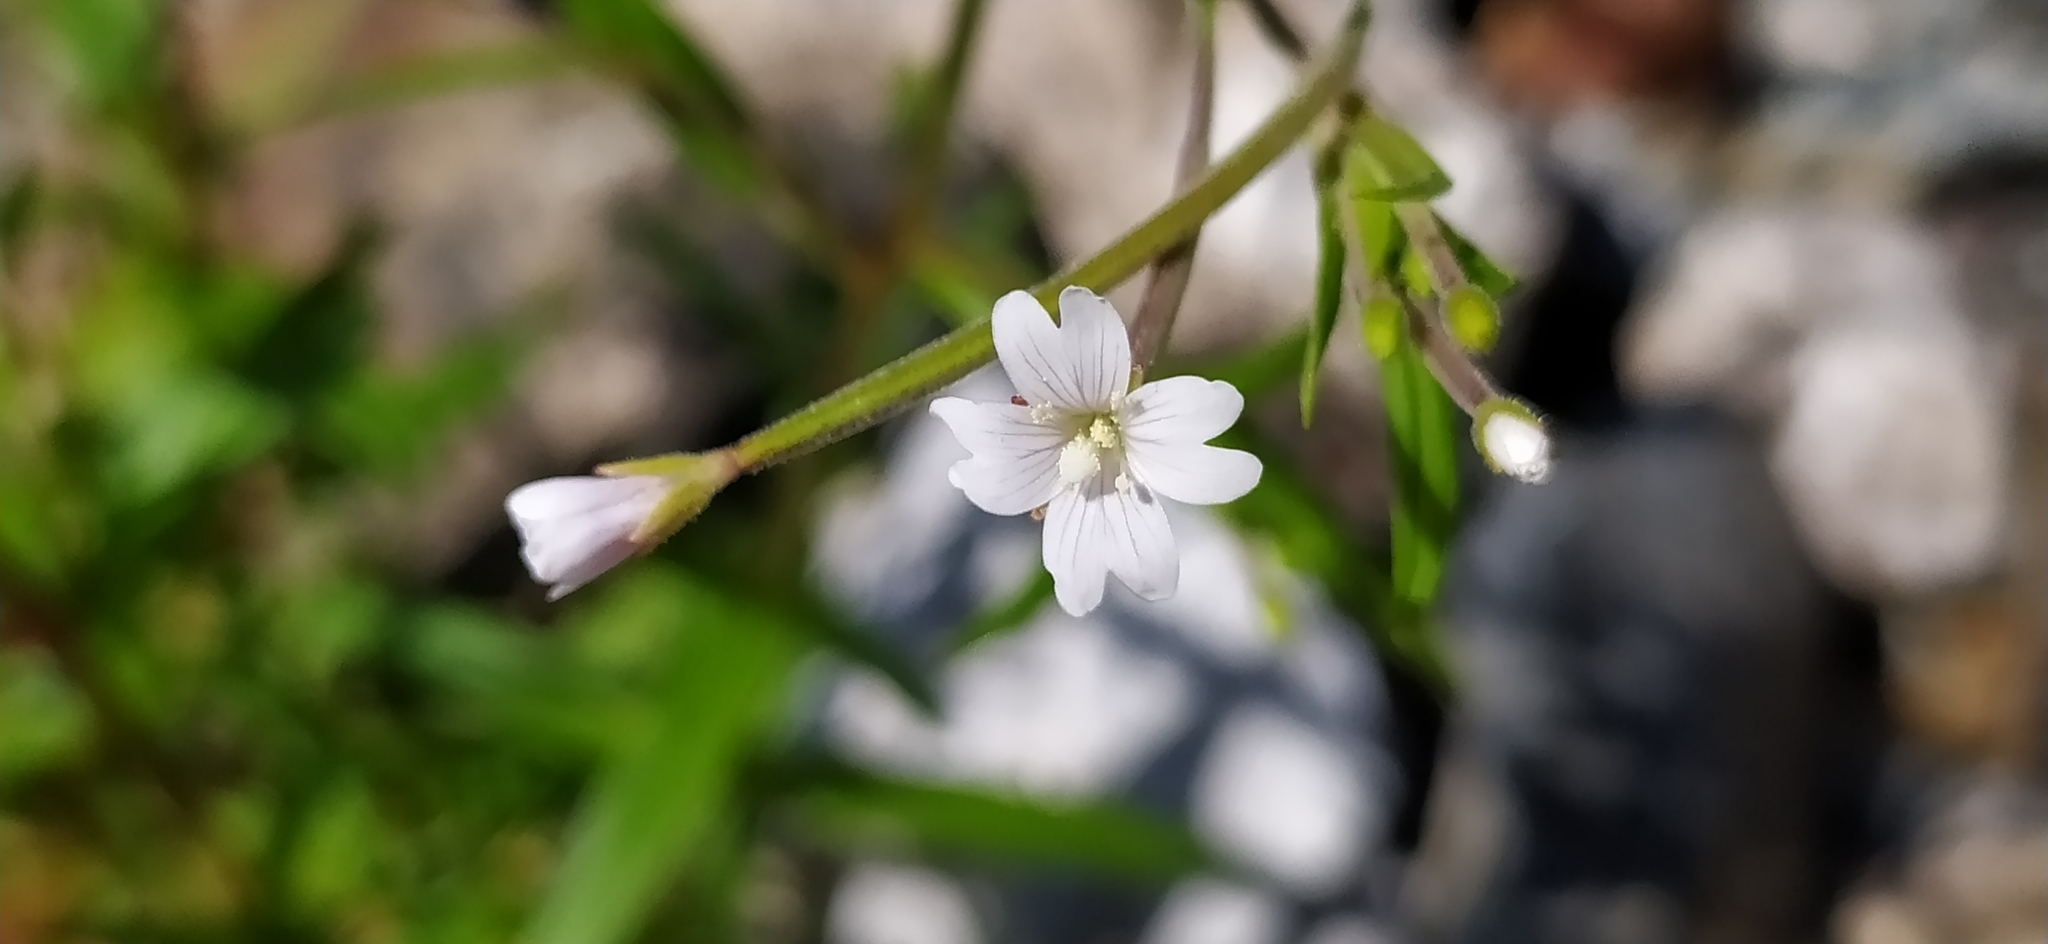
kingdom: Plantae
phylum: Tracheophyta
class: Magnoliopsida
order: Myrtales
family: Onagraceae
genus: Epilobium
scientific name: Epilobium palustre
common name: Marsh willowherb
